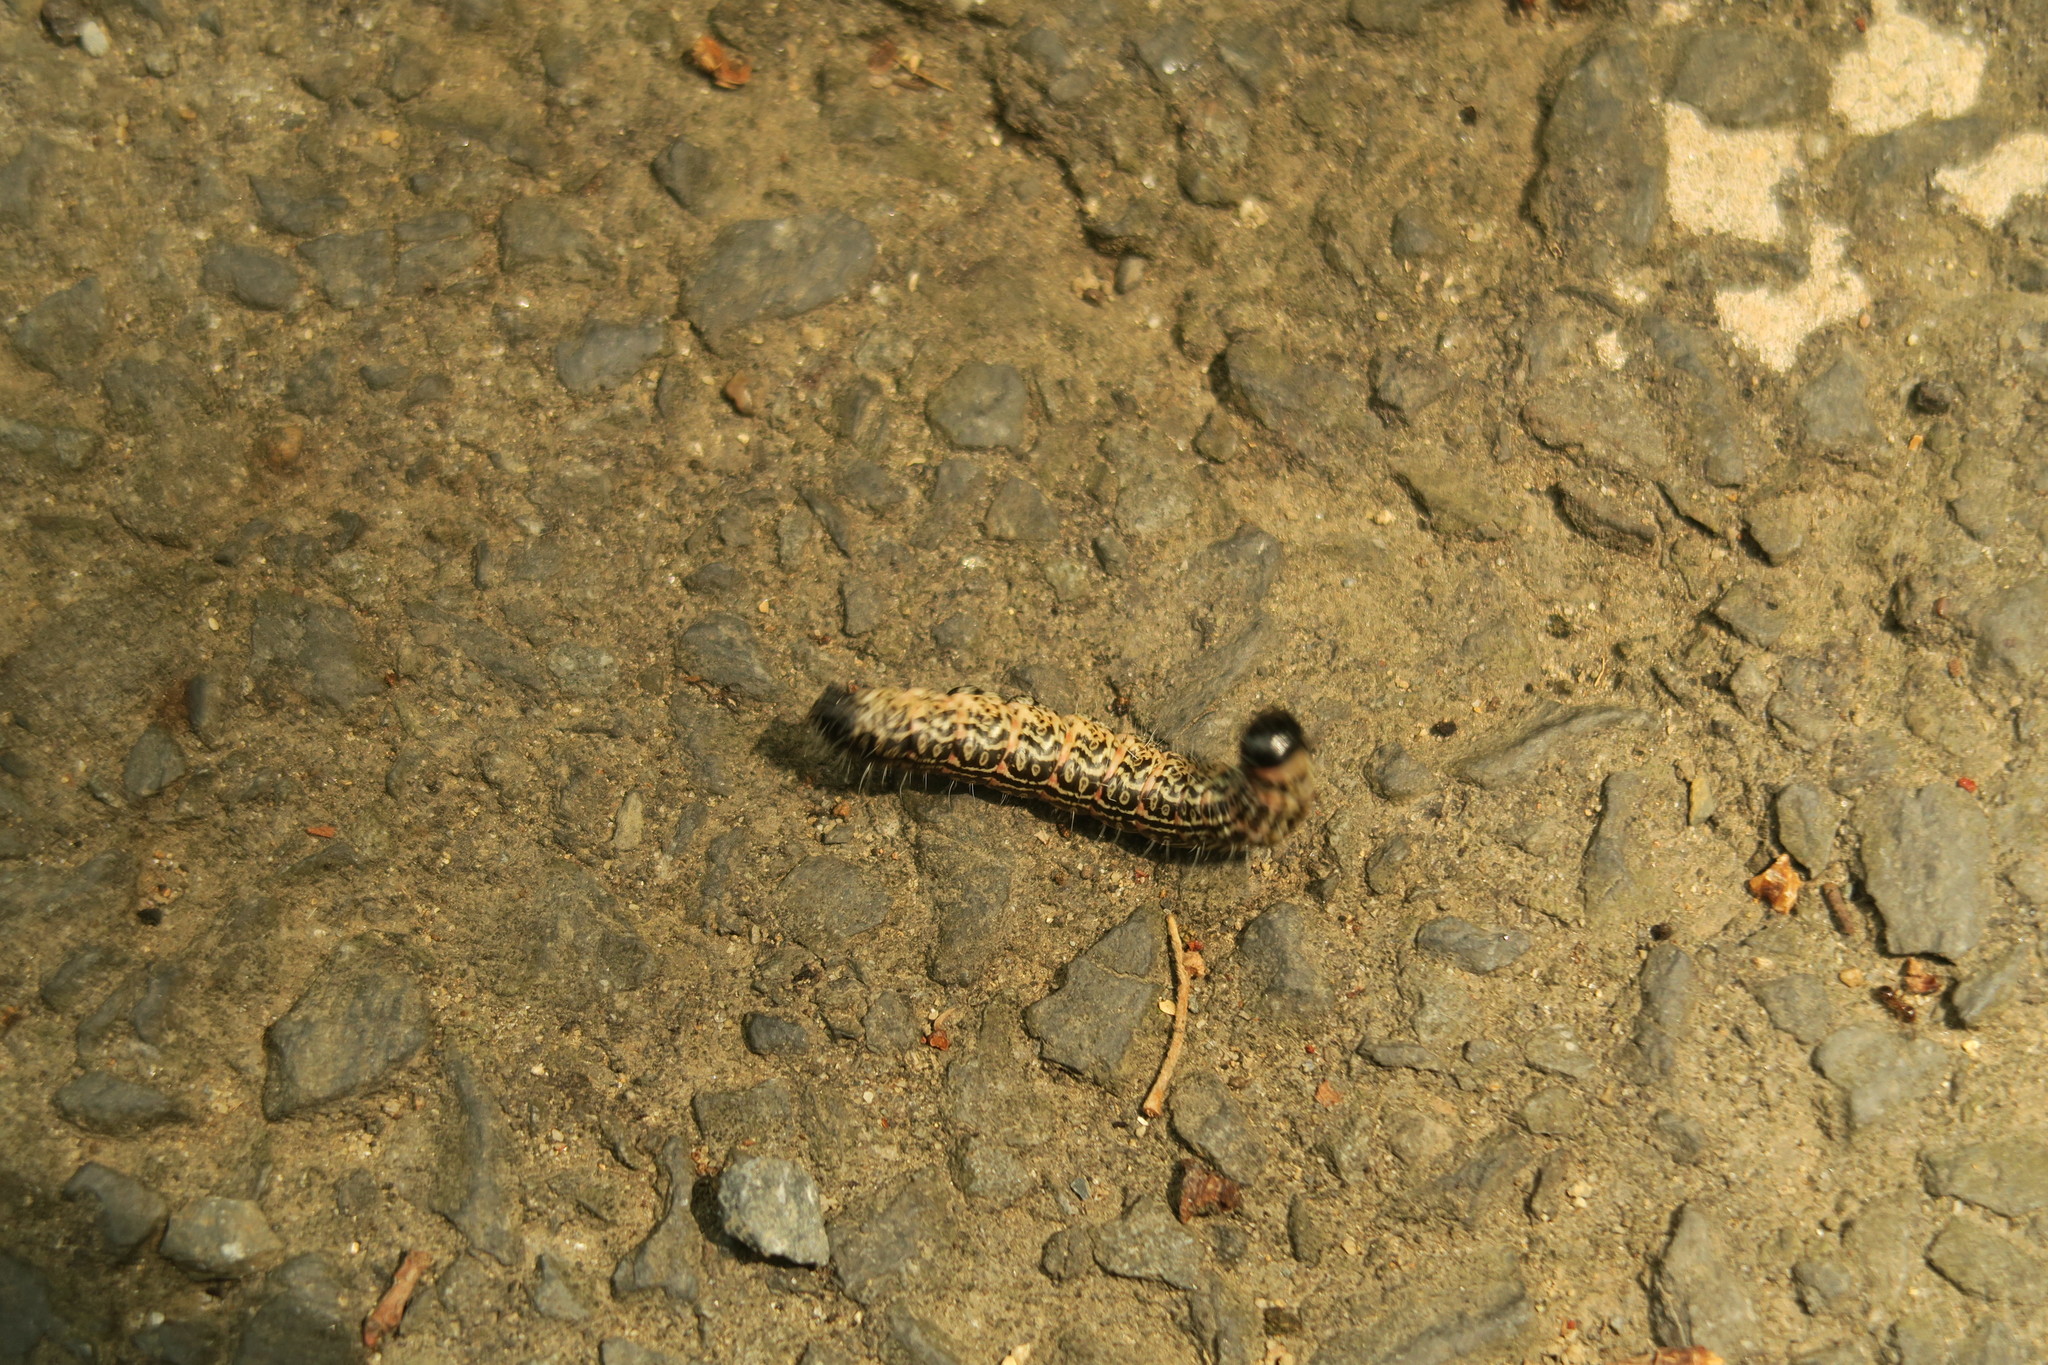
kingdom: Animalia
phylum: Arthropoda
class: Insecta
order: Lepidoptera
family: Notodontidae
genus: Phalerodonta
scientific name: Phalerodonta manleyi
